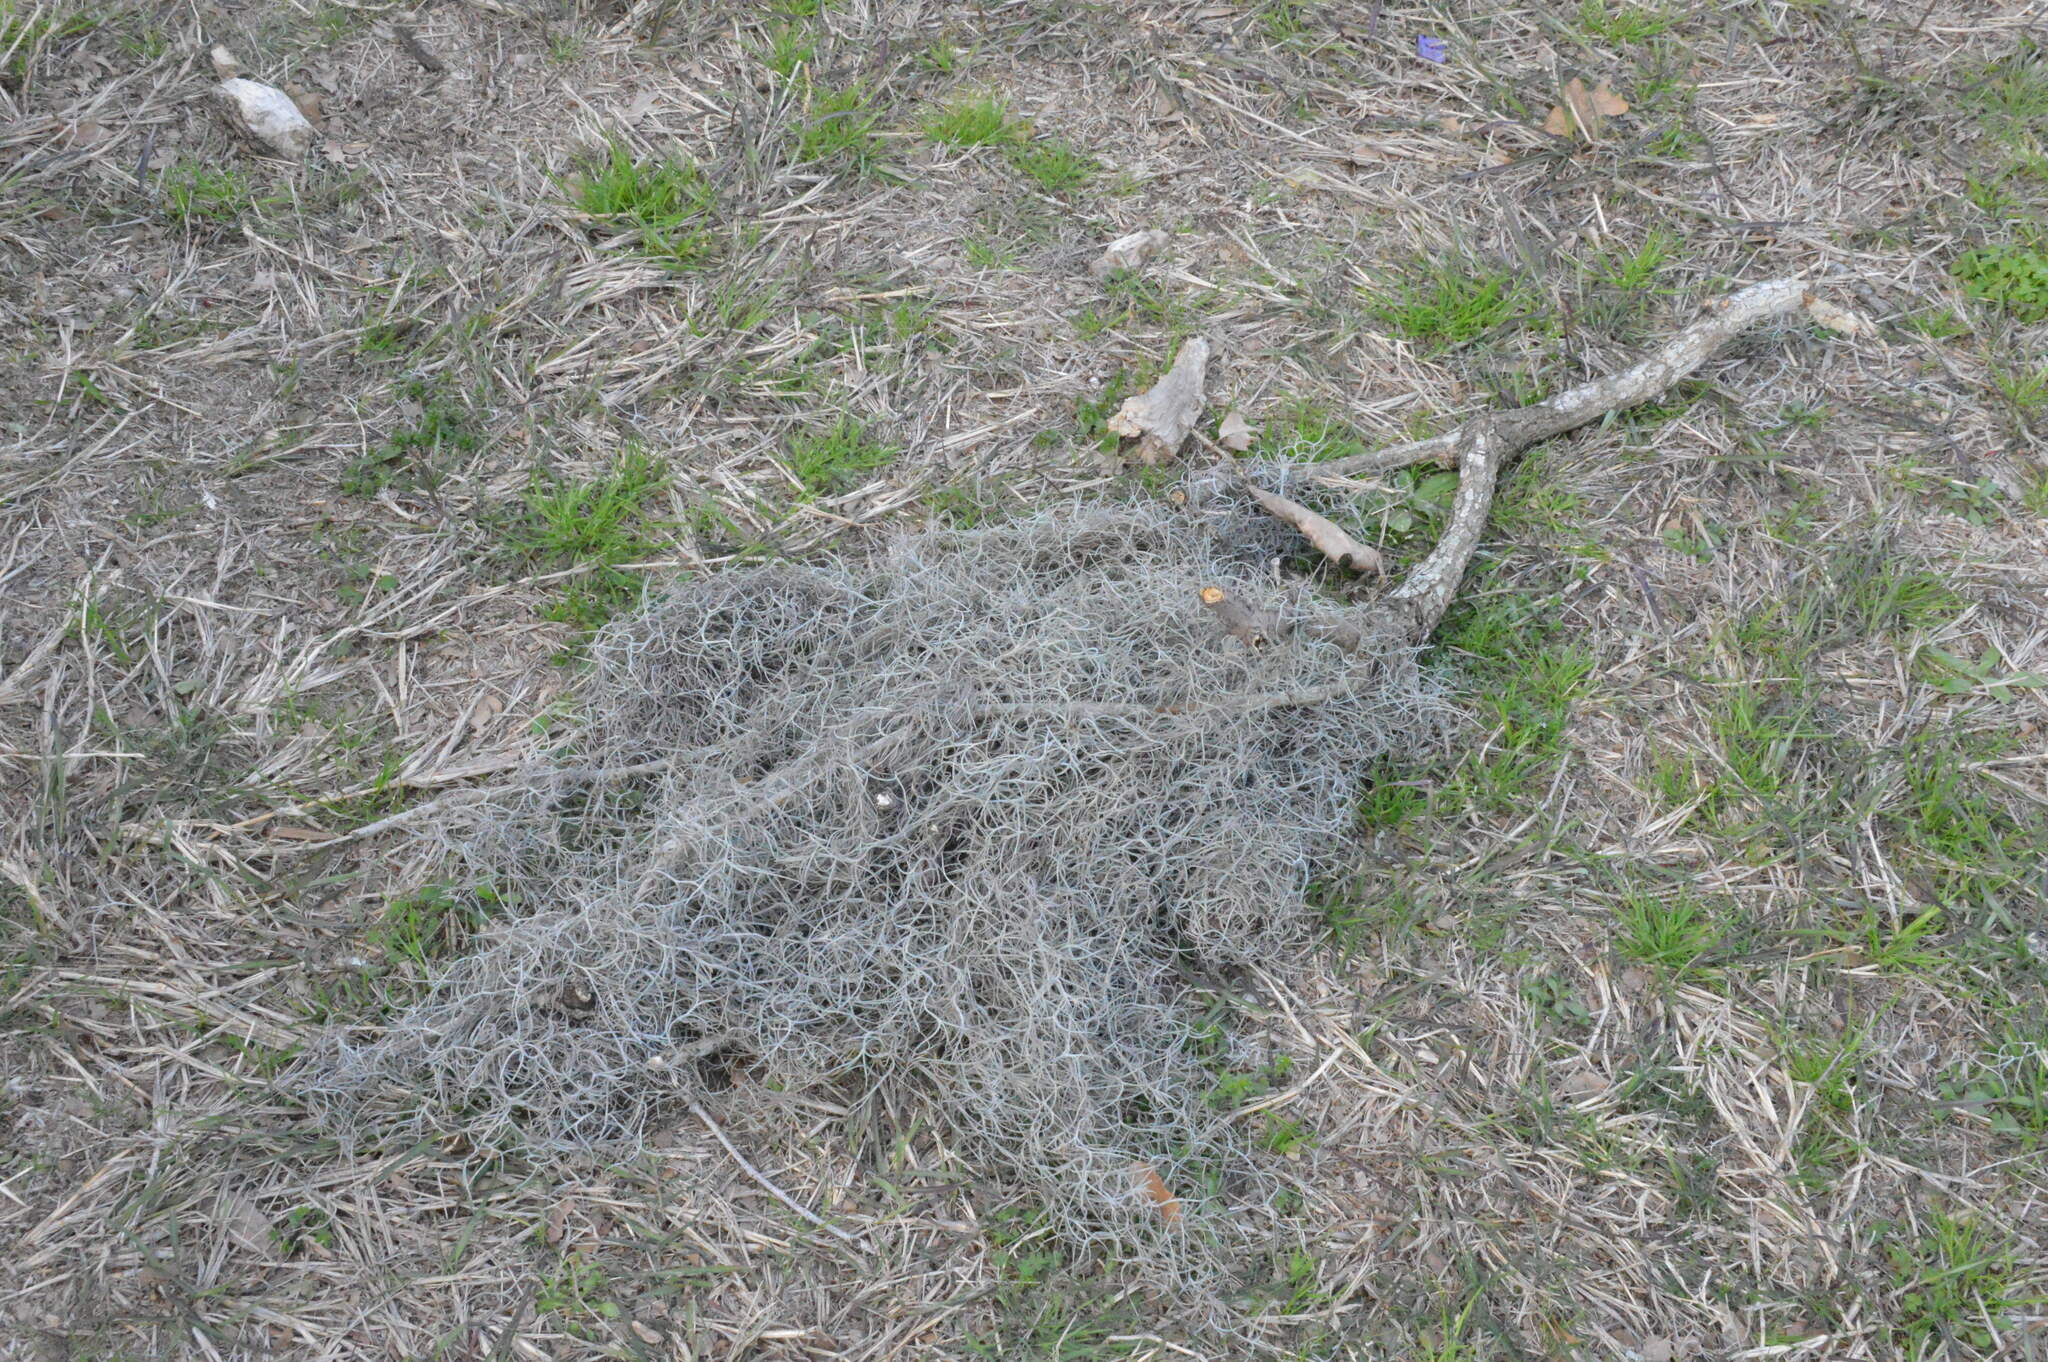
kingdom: Plantae
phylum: Tracheophyta
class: Liliopsida
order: Poales
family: Bromeliaceae
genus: Tillandsia
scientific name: Tillandsia usneoides
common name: Spanish moss
